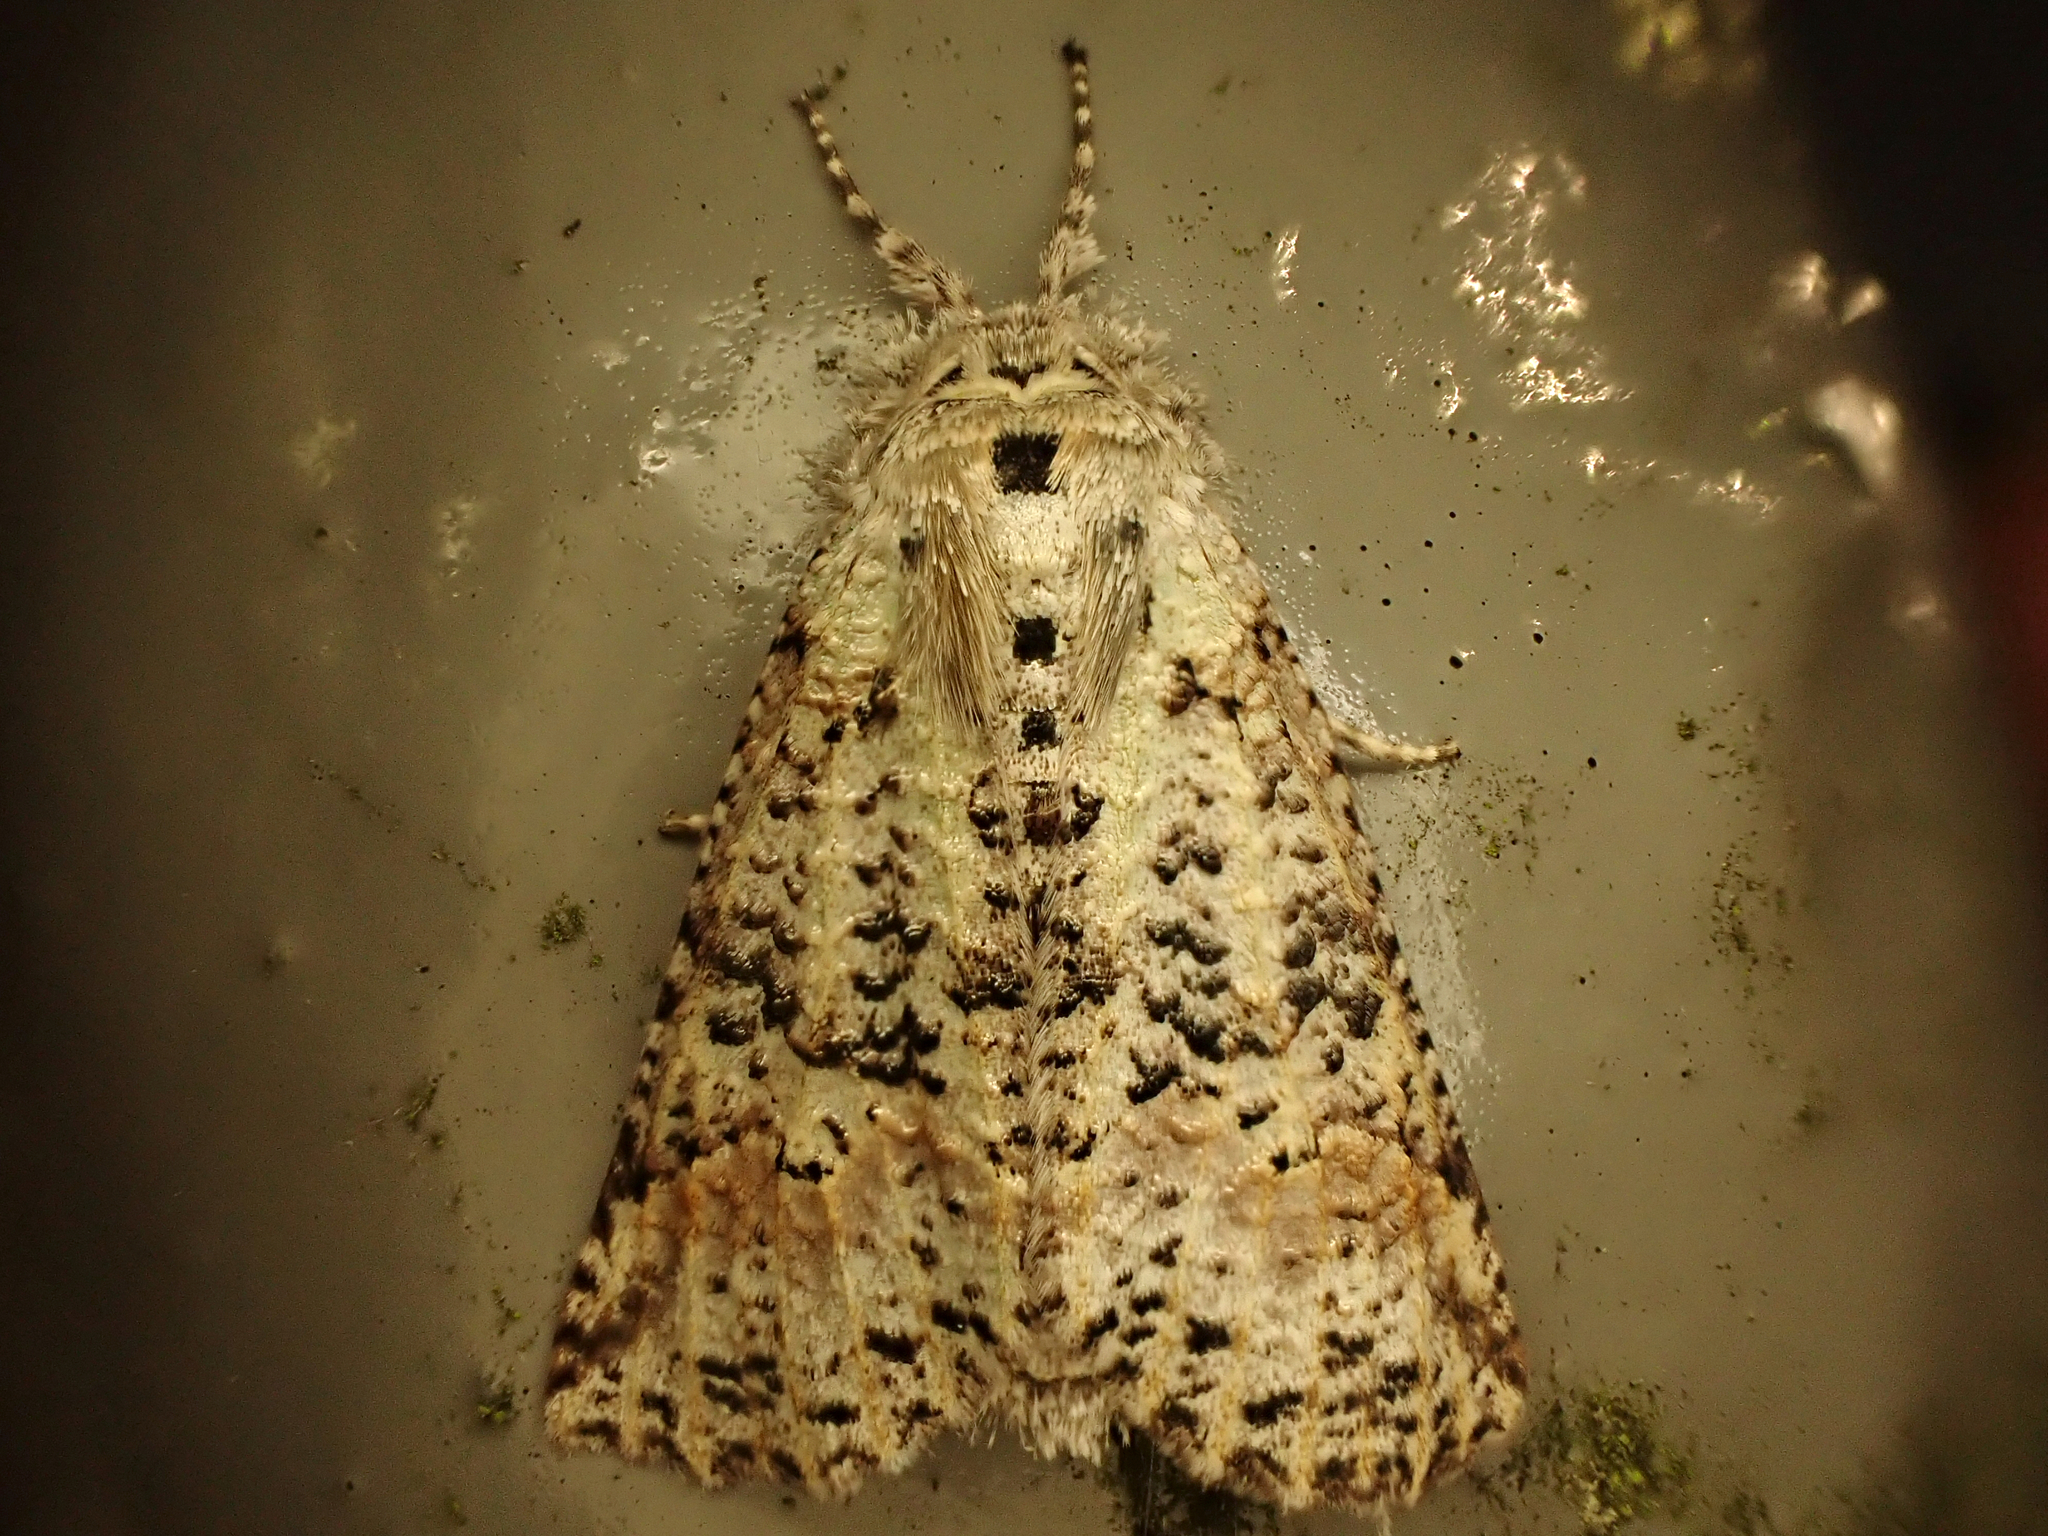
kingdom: Animalia
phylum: Arthropoda
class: Insecta
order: Lepidoptera
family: Geometridae
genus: Declana
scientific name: Declana floccosa
